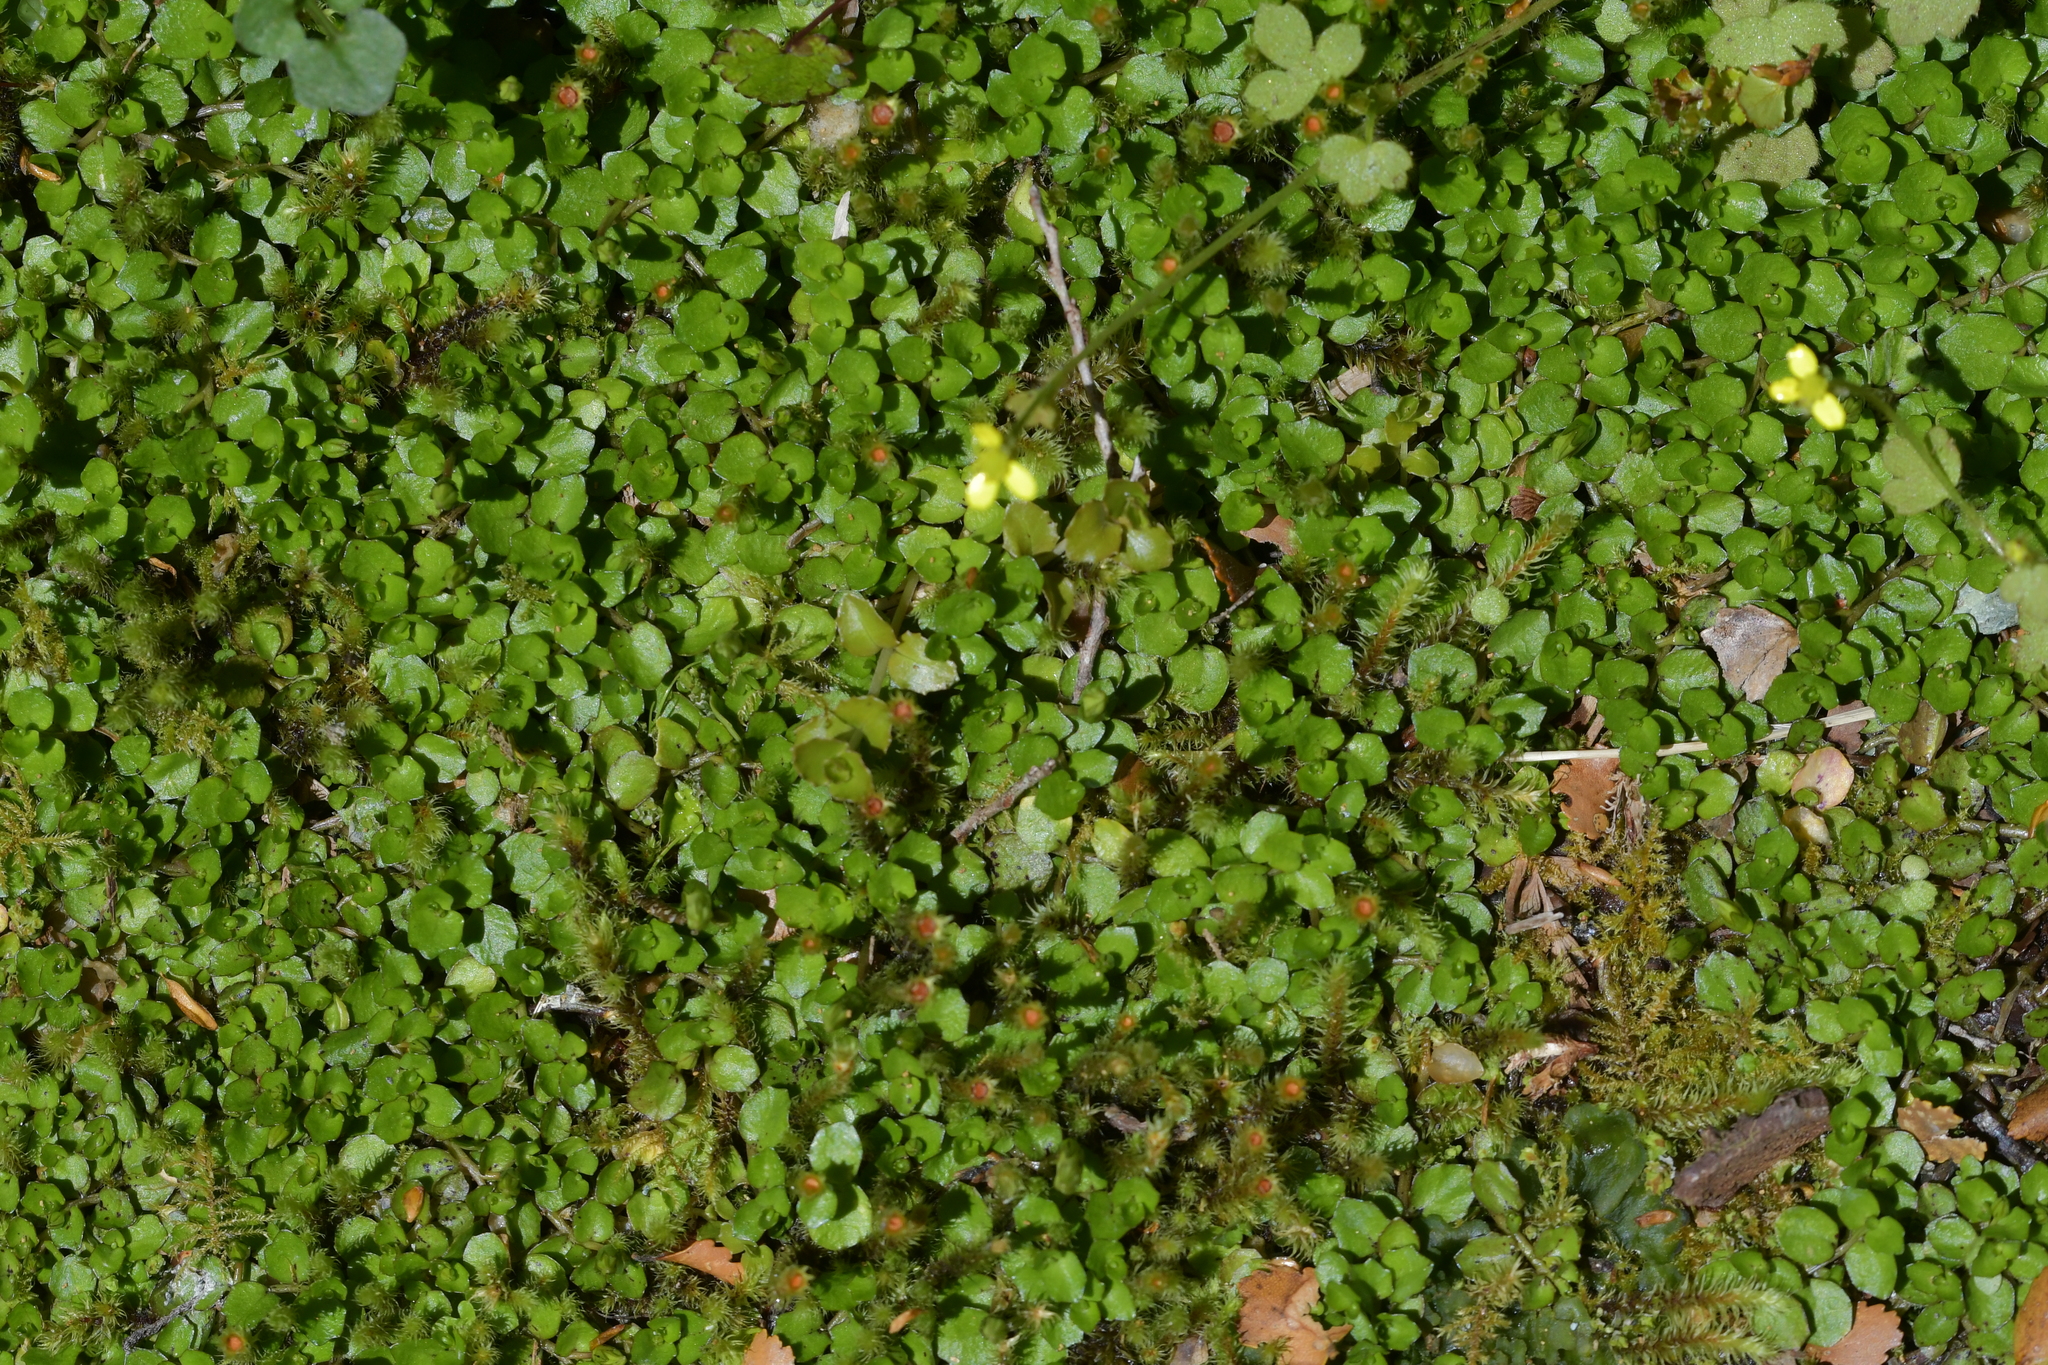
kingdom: Plantae
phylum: Tracheophyta
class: Magnoliopsida
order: Asterales
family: Campanulaceae
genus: Lobelia
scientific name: Lobelia angulata
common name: Lawn lobelia
